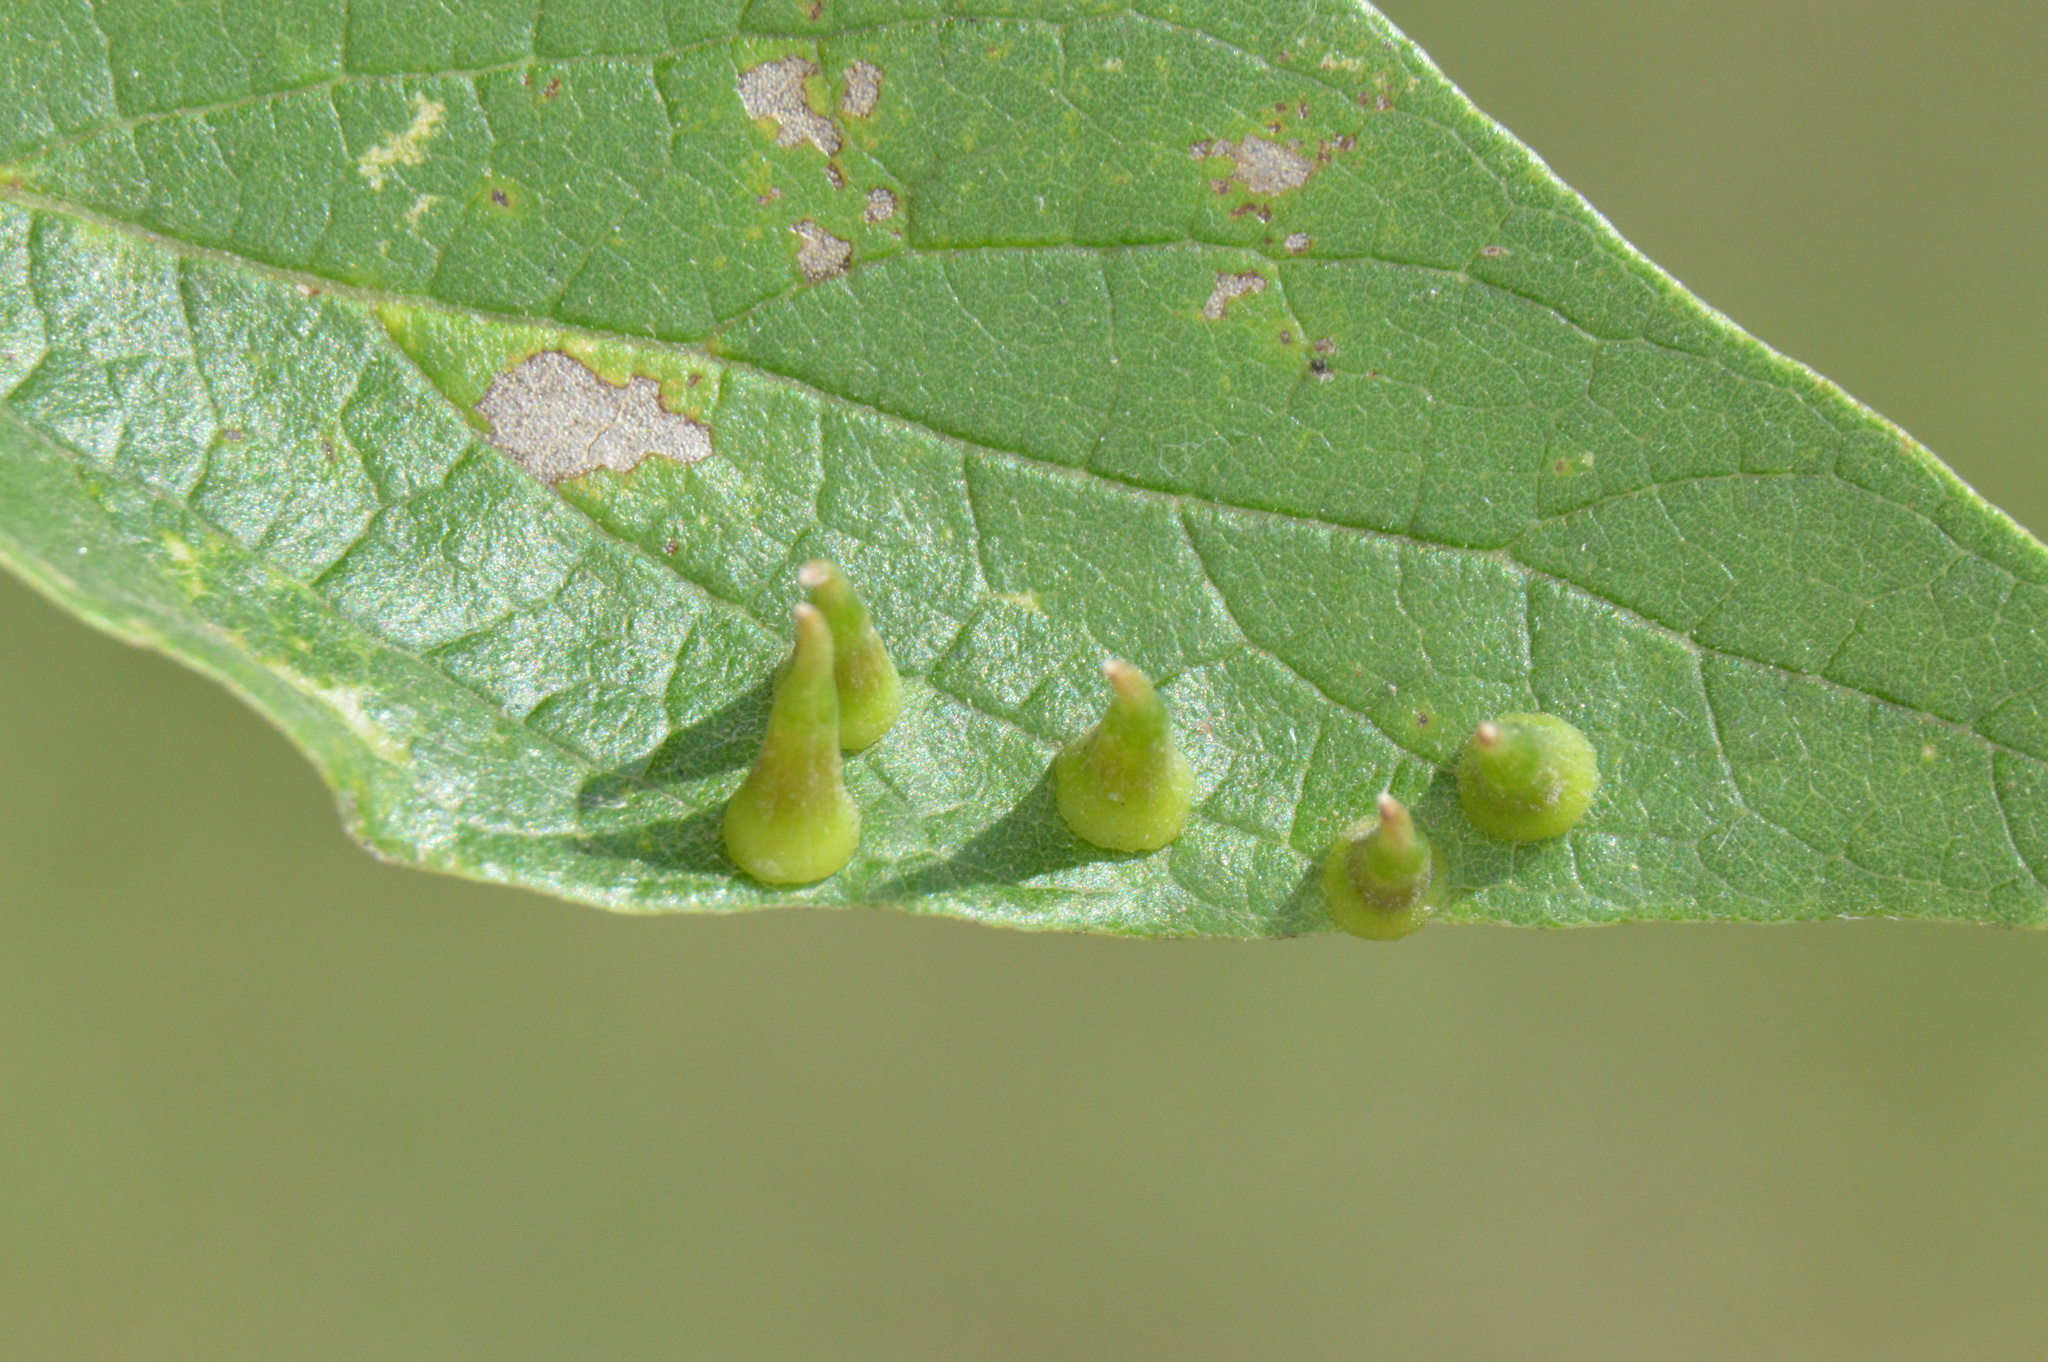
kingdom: Animalia
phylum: Arthropoda
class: Insecta
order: Diptera
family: Cecidomyiidae
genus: Celticecis
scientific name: Celticecis subulata
